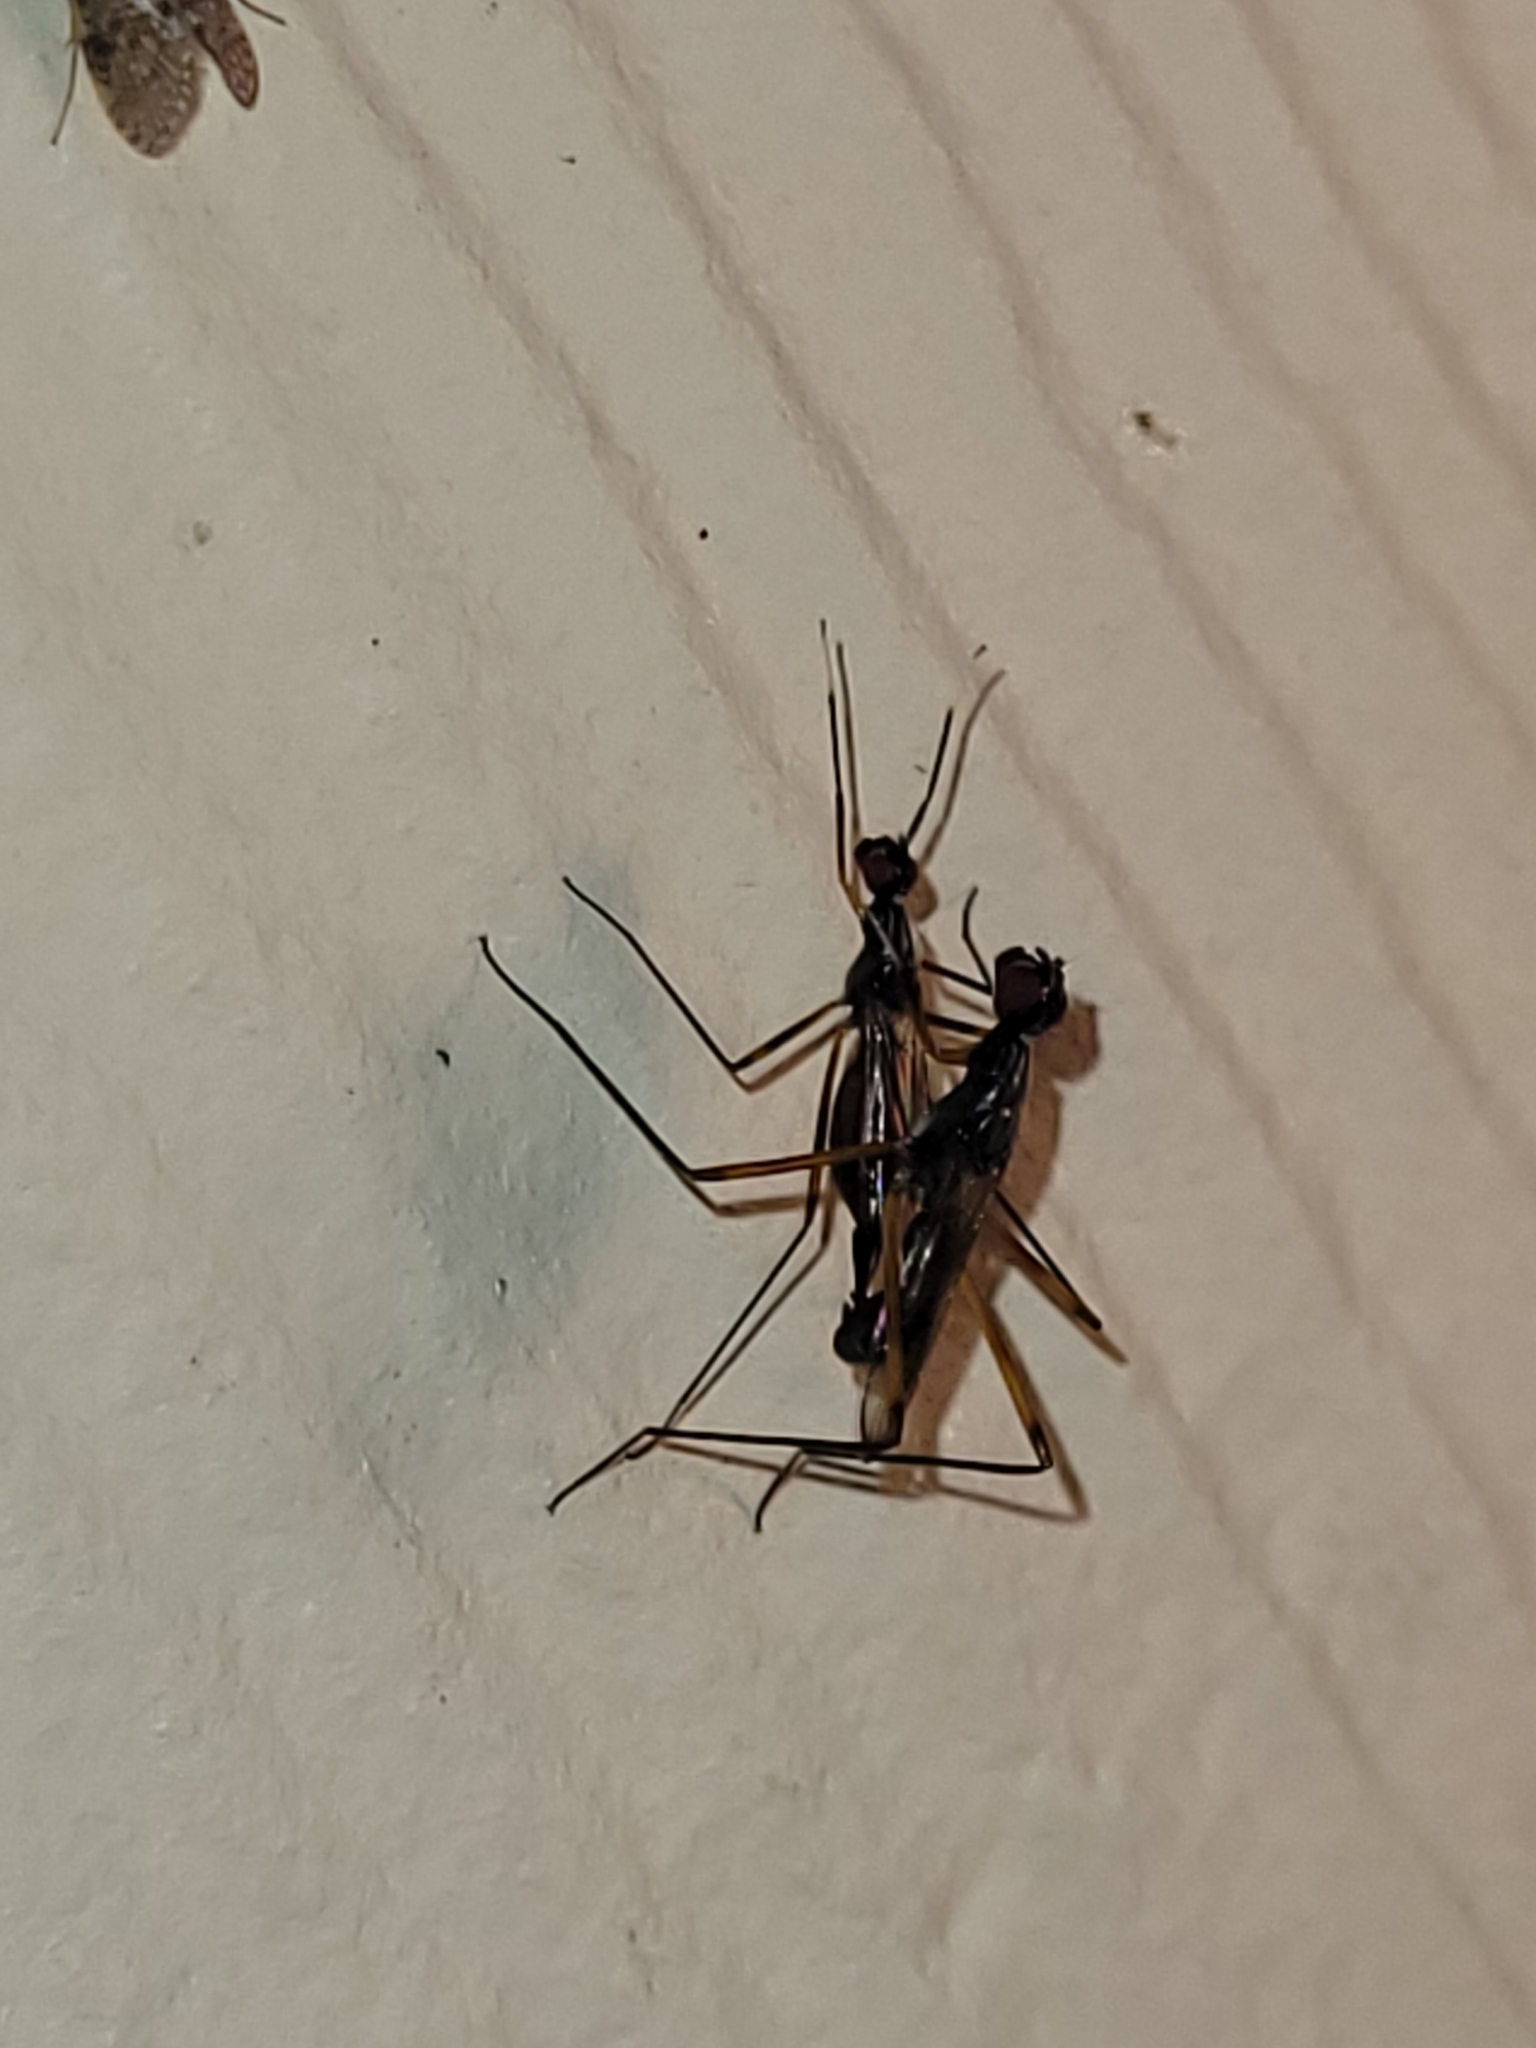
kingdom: Animalia
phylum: Arthropoda
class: Insecta
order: Diptera
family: Micropezidae
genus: Rainieria
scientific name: Rainieria antennaepes
